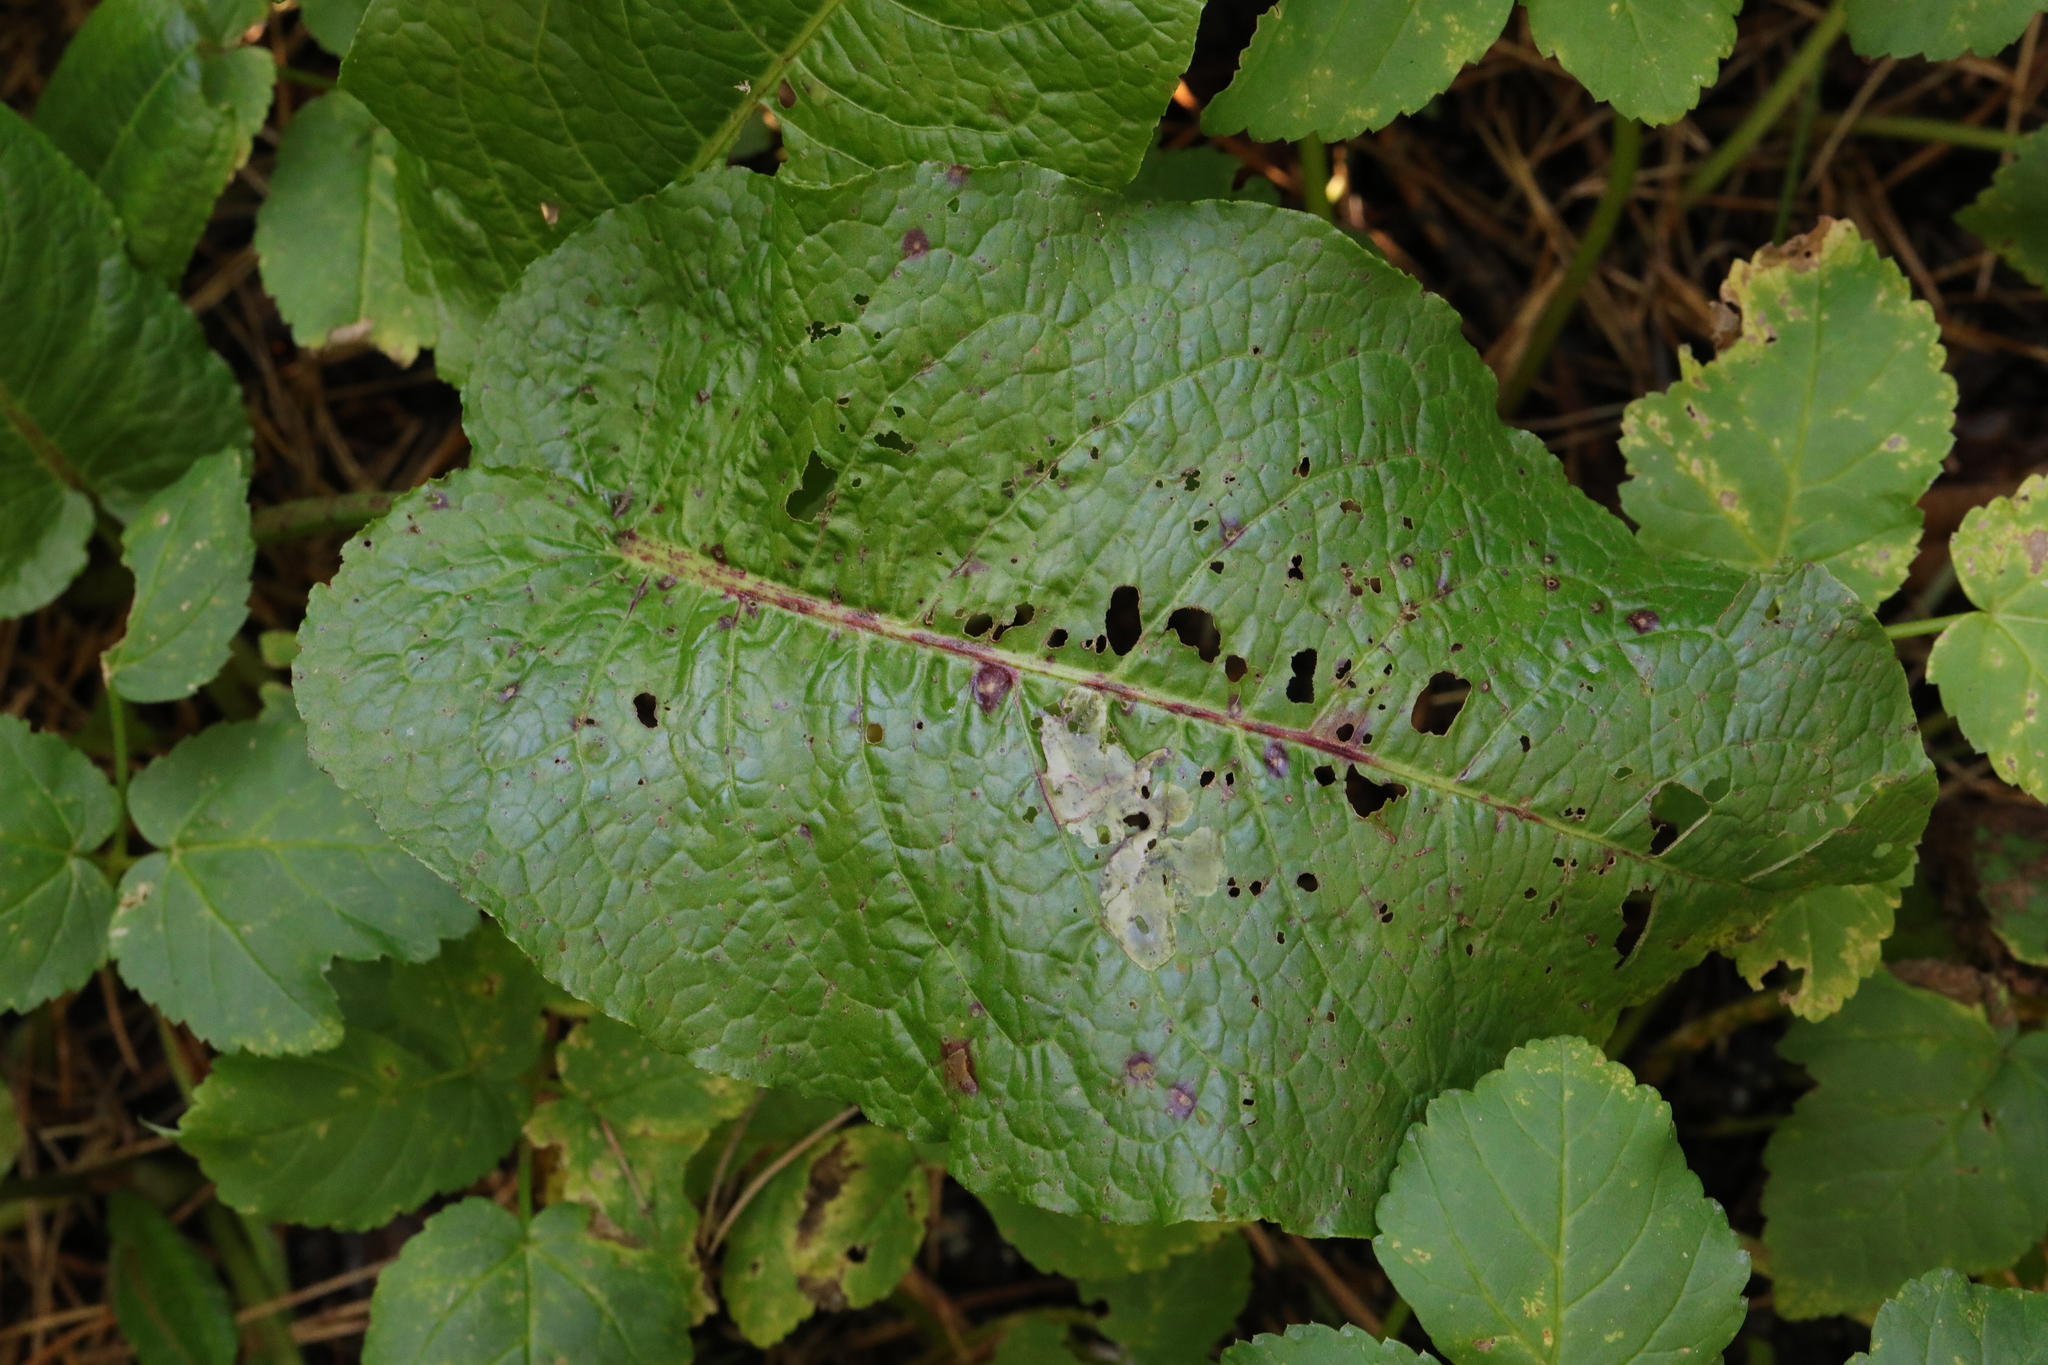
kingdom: Plantae
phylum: Tracheophyta
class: Magnoliopsida
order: Caryophyllales
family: Polygonaceae
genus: Rumex
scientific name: Rumex obtusifolius
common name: Bitter dock
